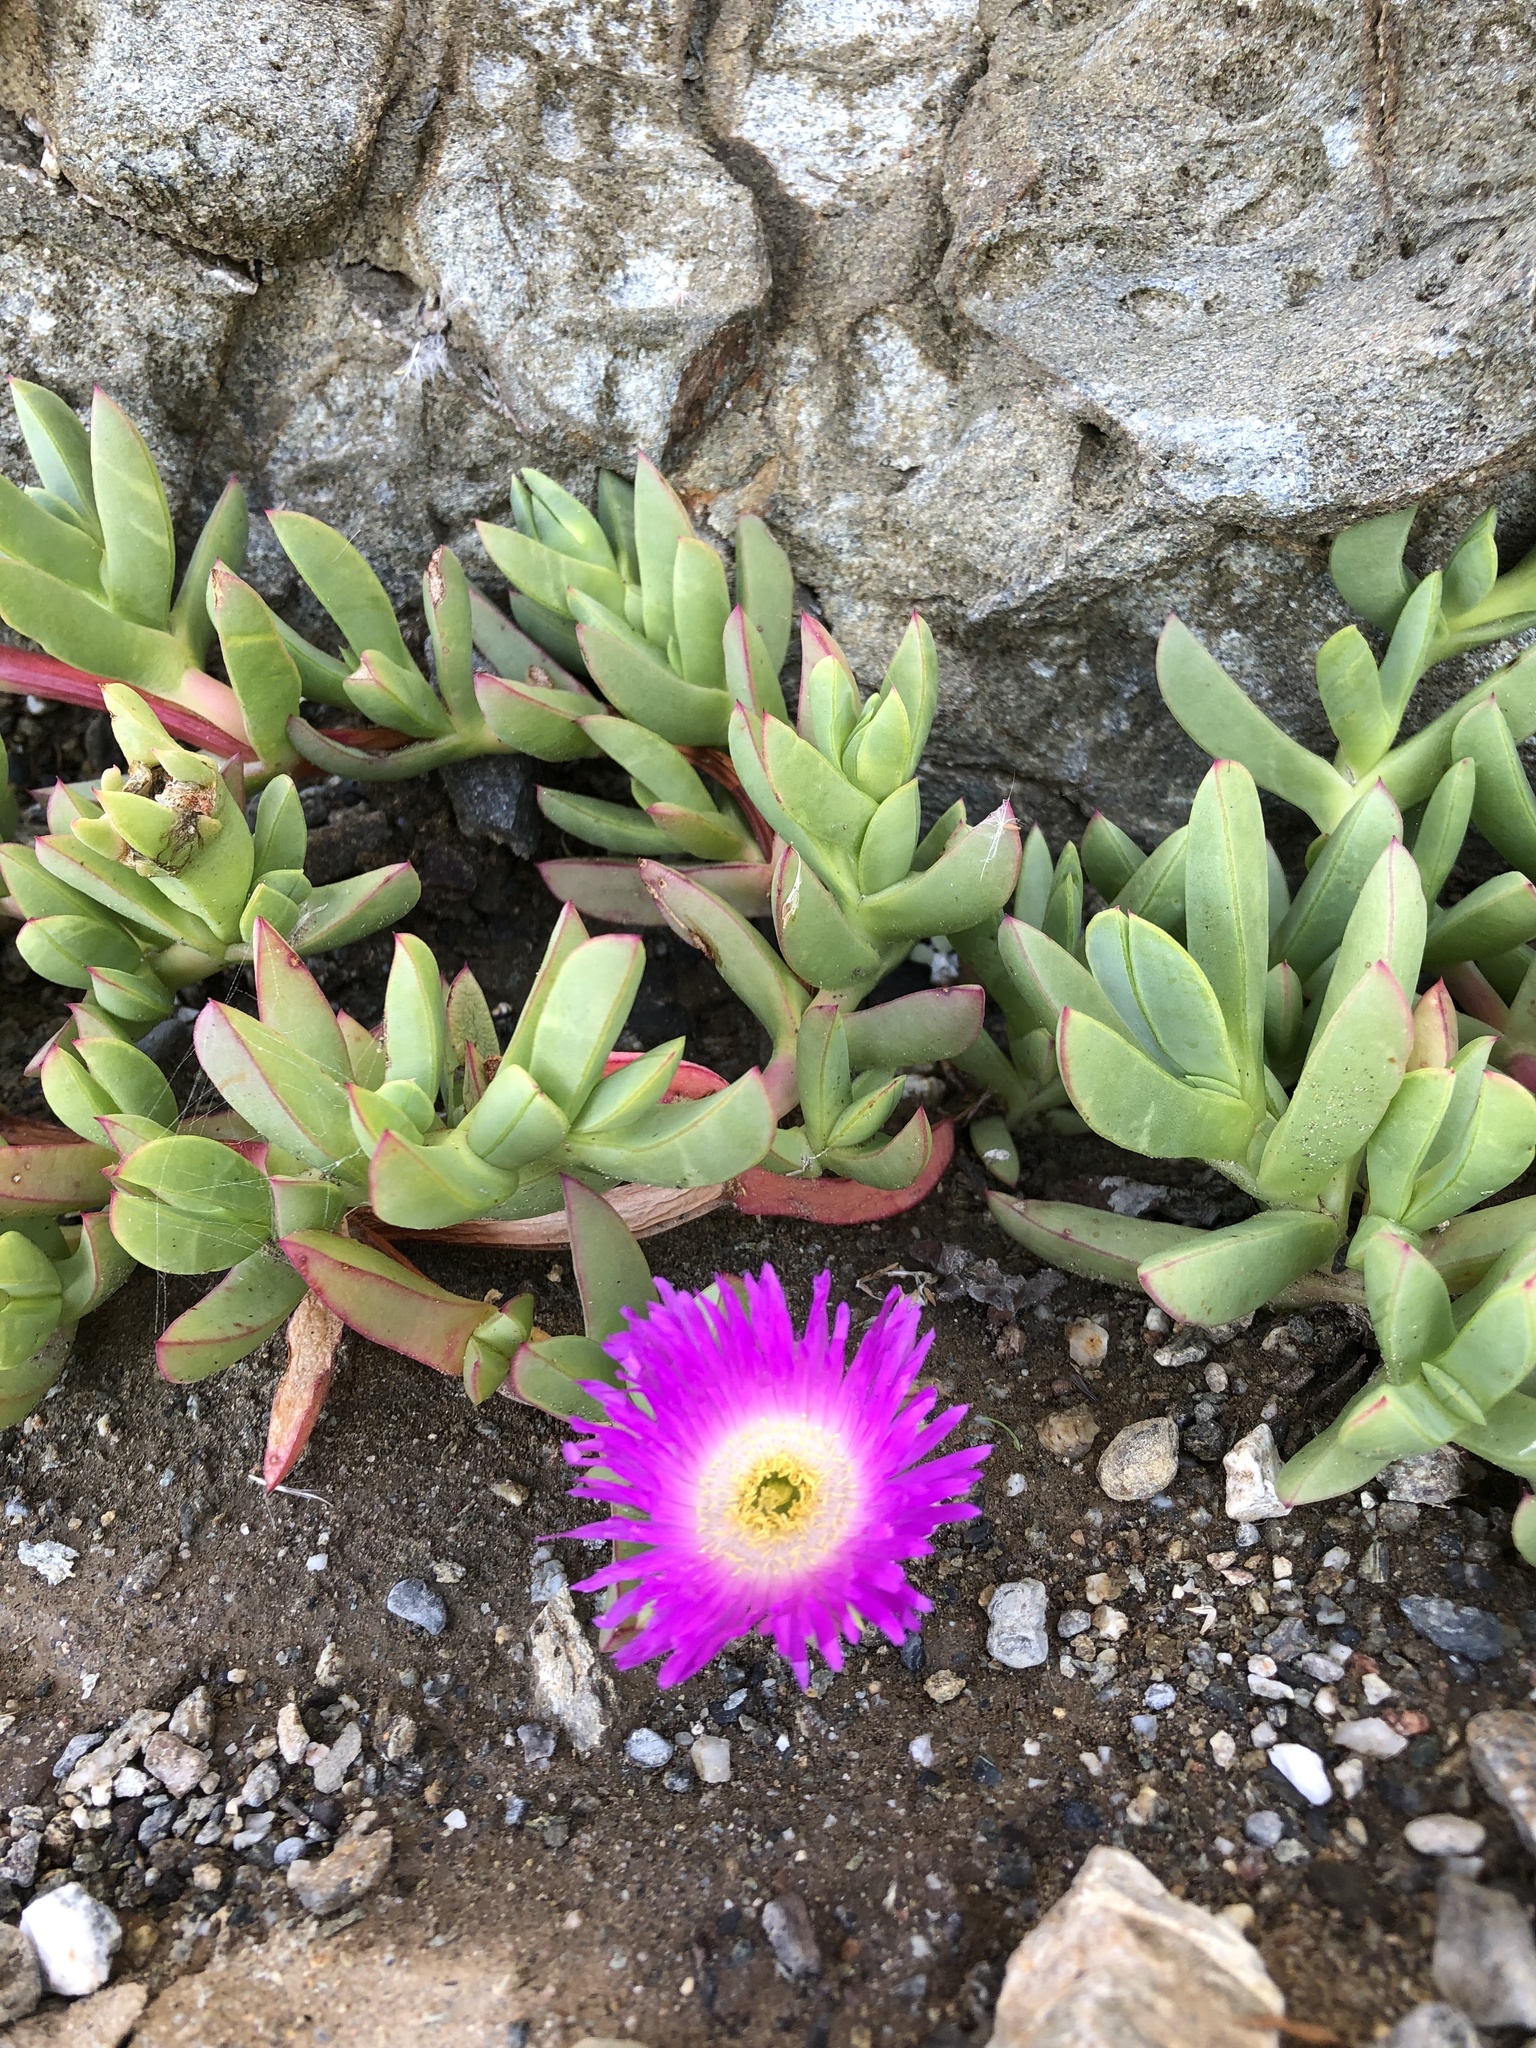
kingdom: Plantae
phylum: Tracheophyta
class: Magnoliopsida
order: Caryophyllales
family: Aizoaceae
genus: Carpobrotus
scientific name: Carpobrotus chilensis
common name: Sea fig
